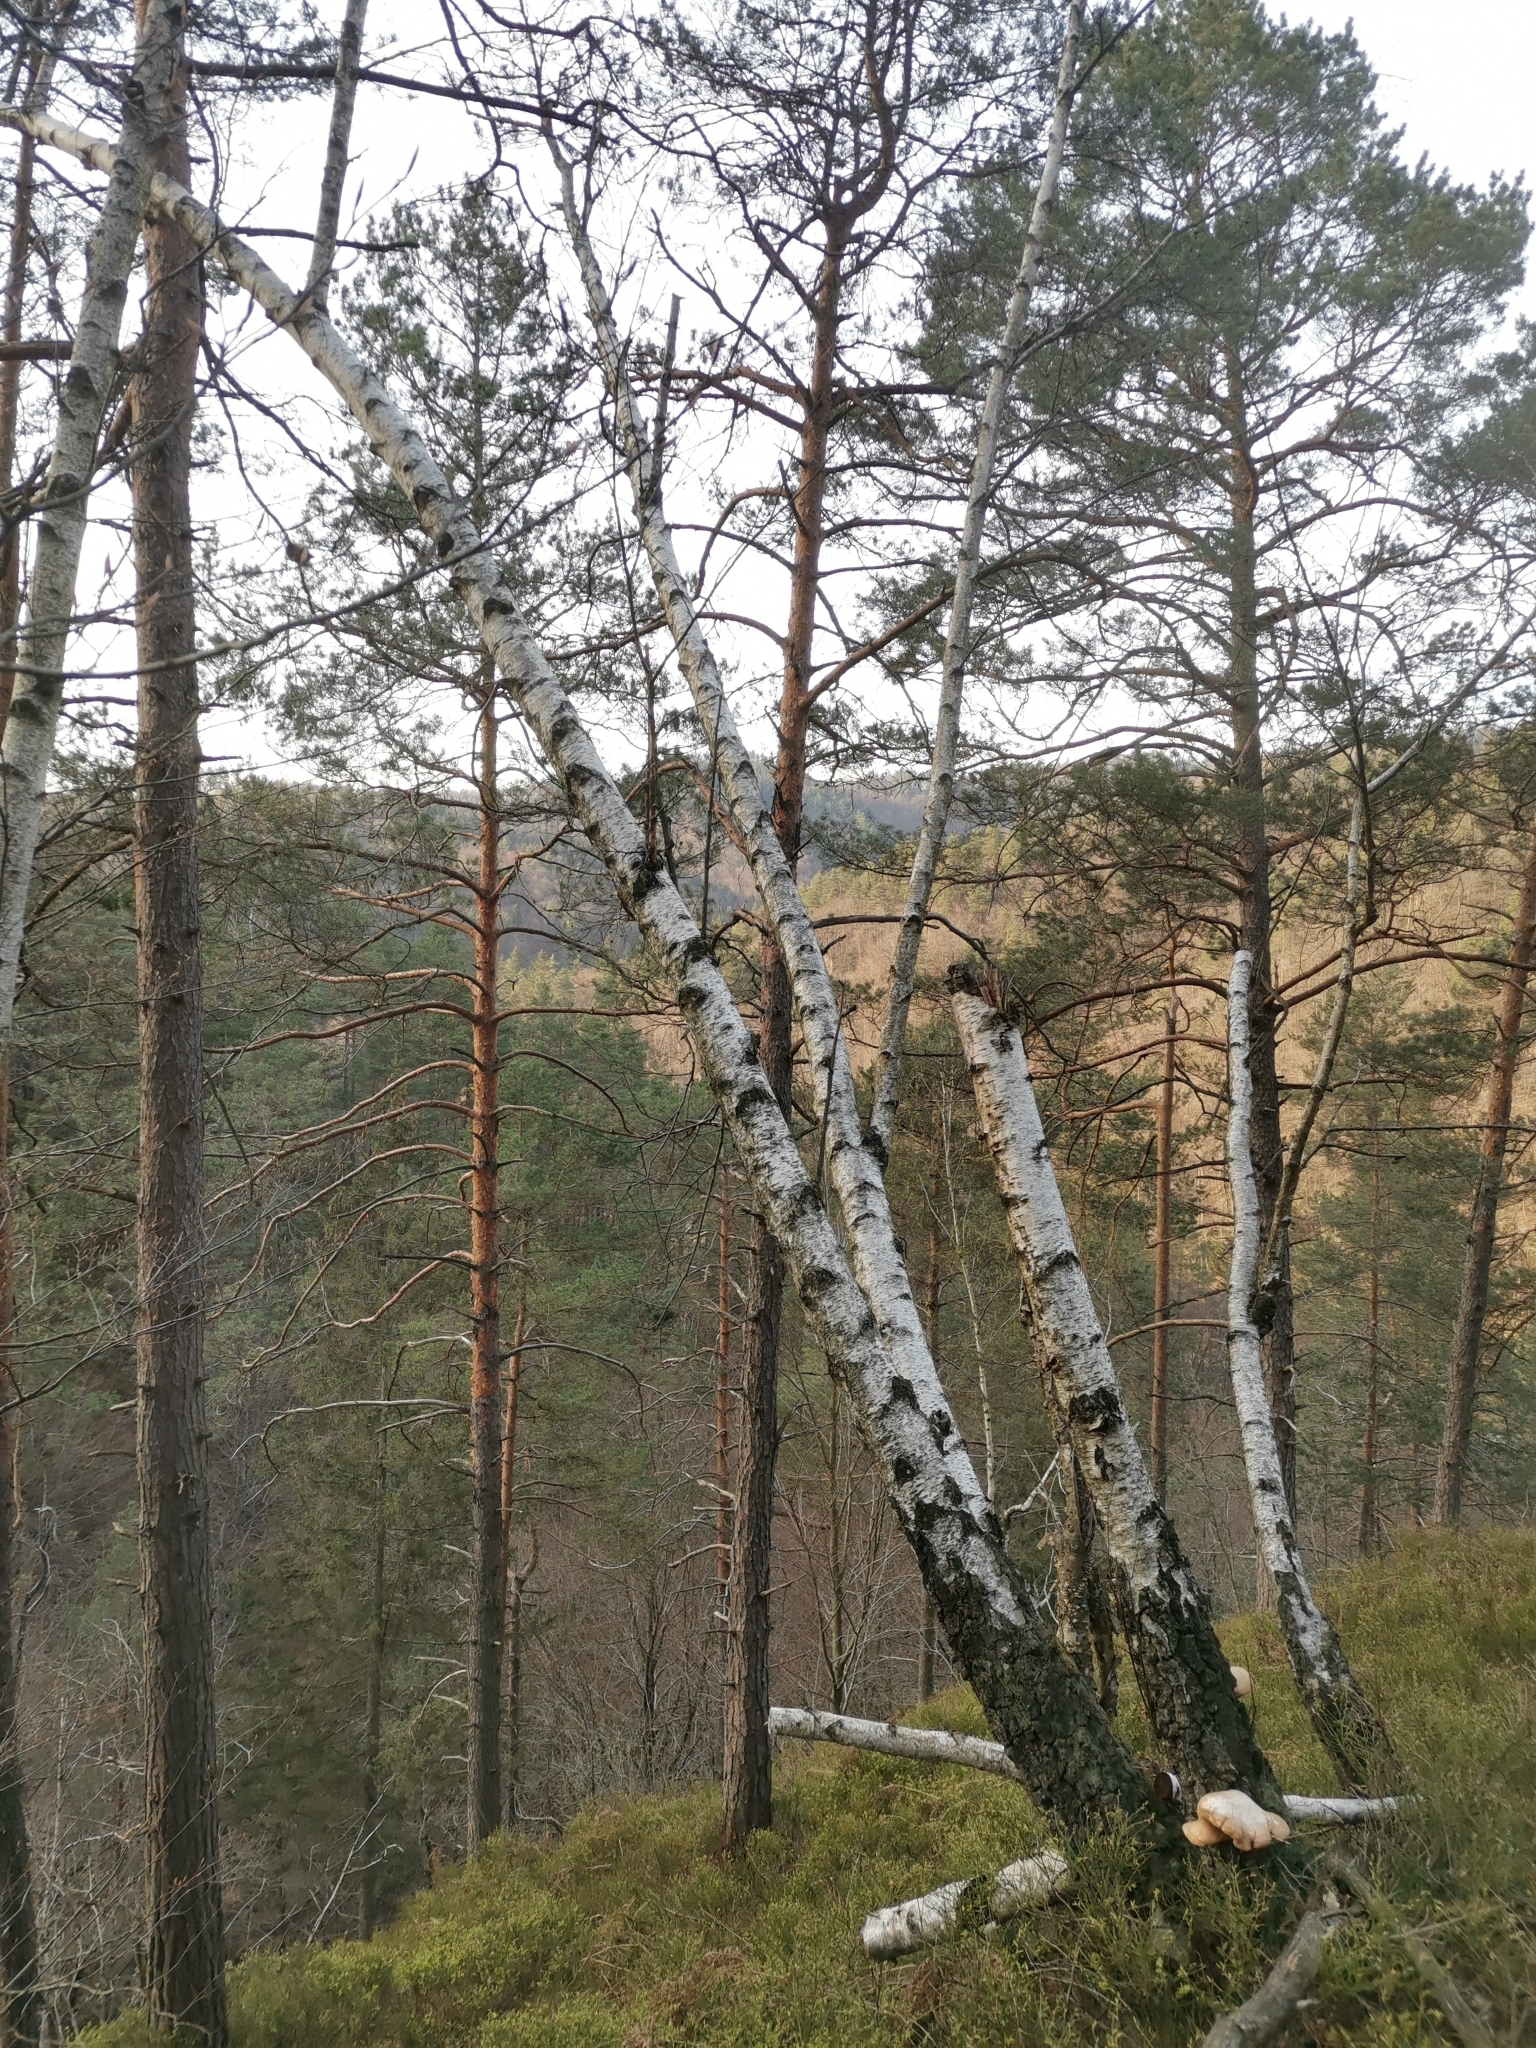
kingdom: Plantae
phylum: Tracheophyta
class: Magnoliopsida
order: Fagales
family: Betulaceae
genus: Betula
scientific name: Betula pendula
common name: Silver birch
